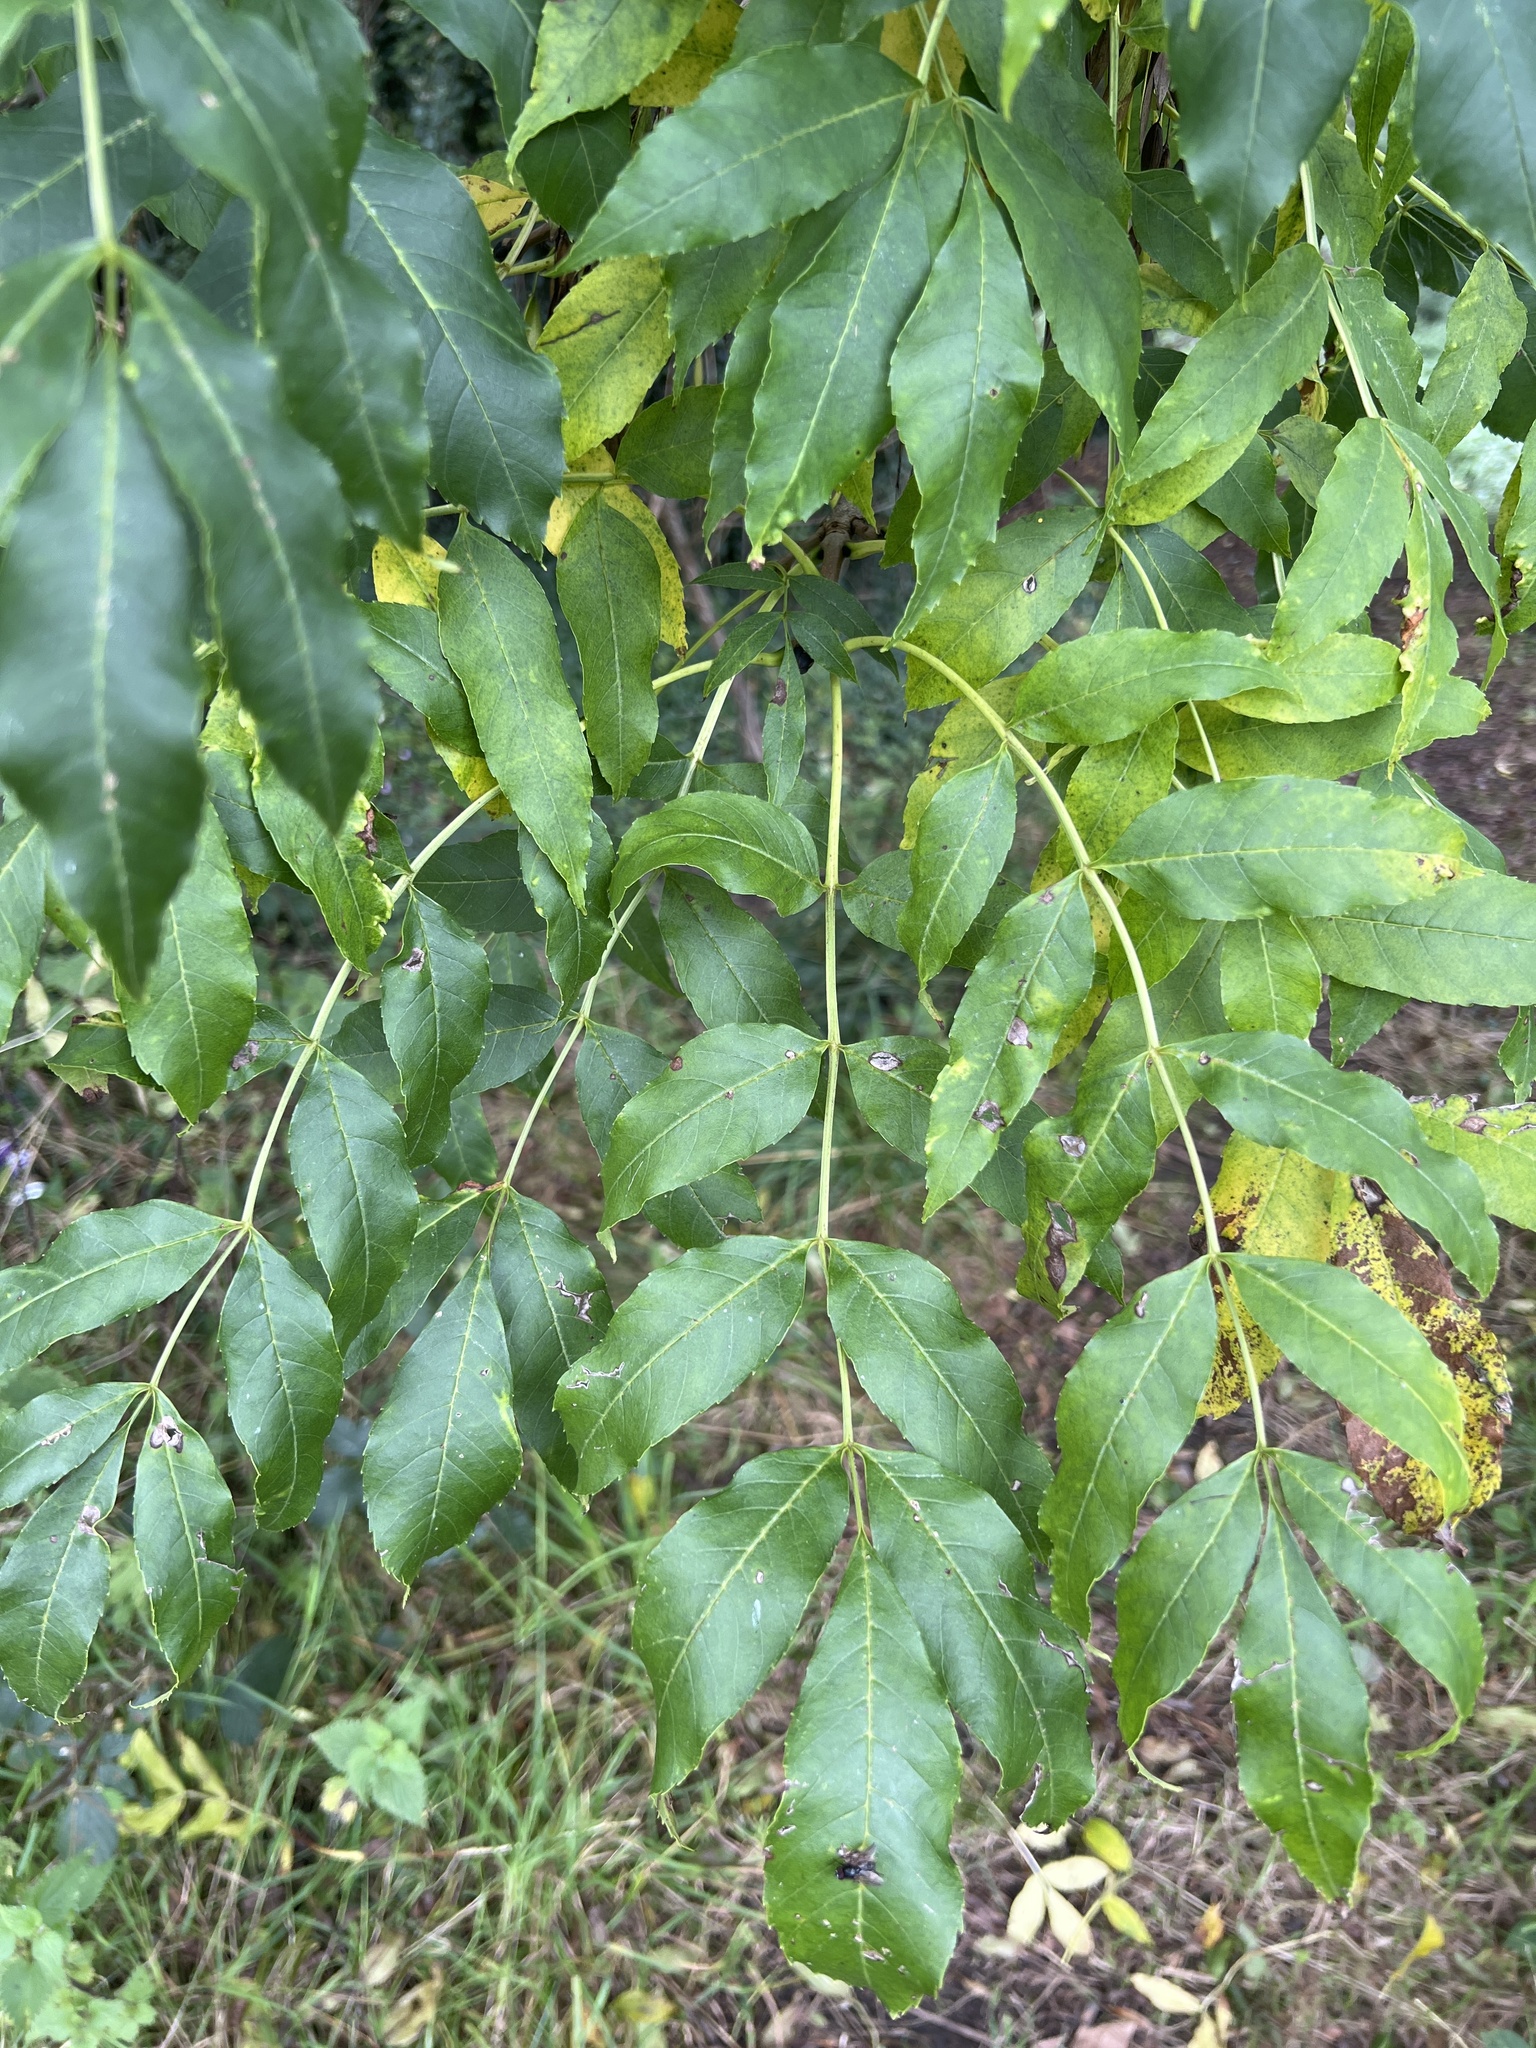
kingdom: Plantae
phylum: Tracheophyta
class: Magnoliopsida
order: Lamiales
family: Oleaceae
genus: Fraxinus
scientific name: Fraxinus excelsior
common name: European ash
